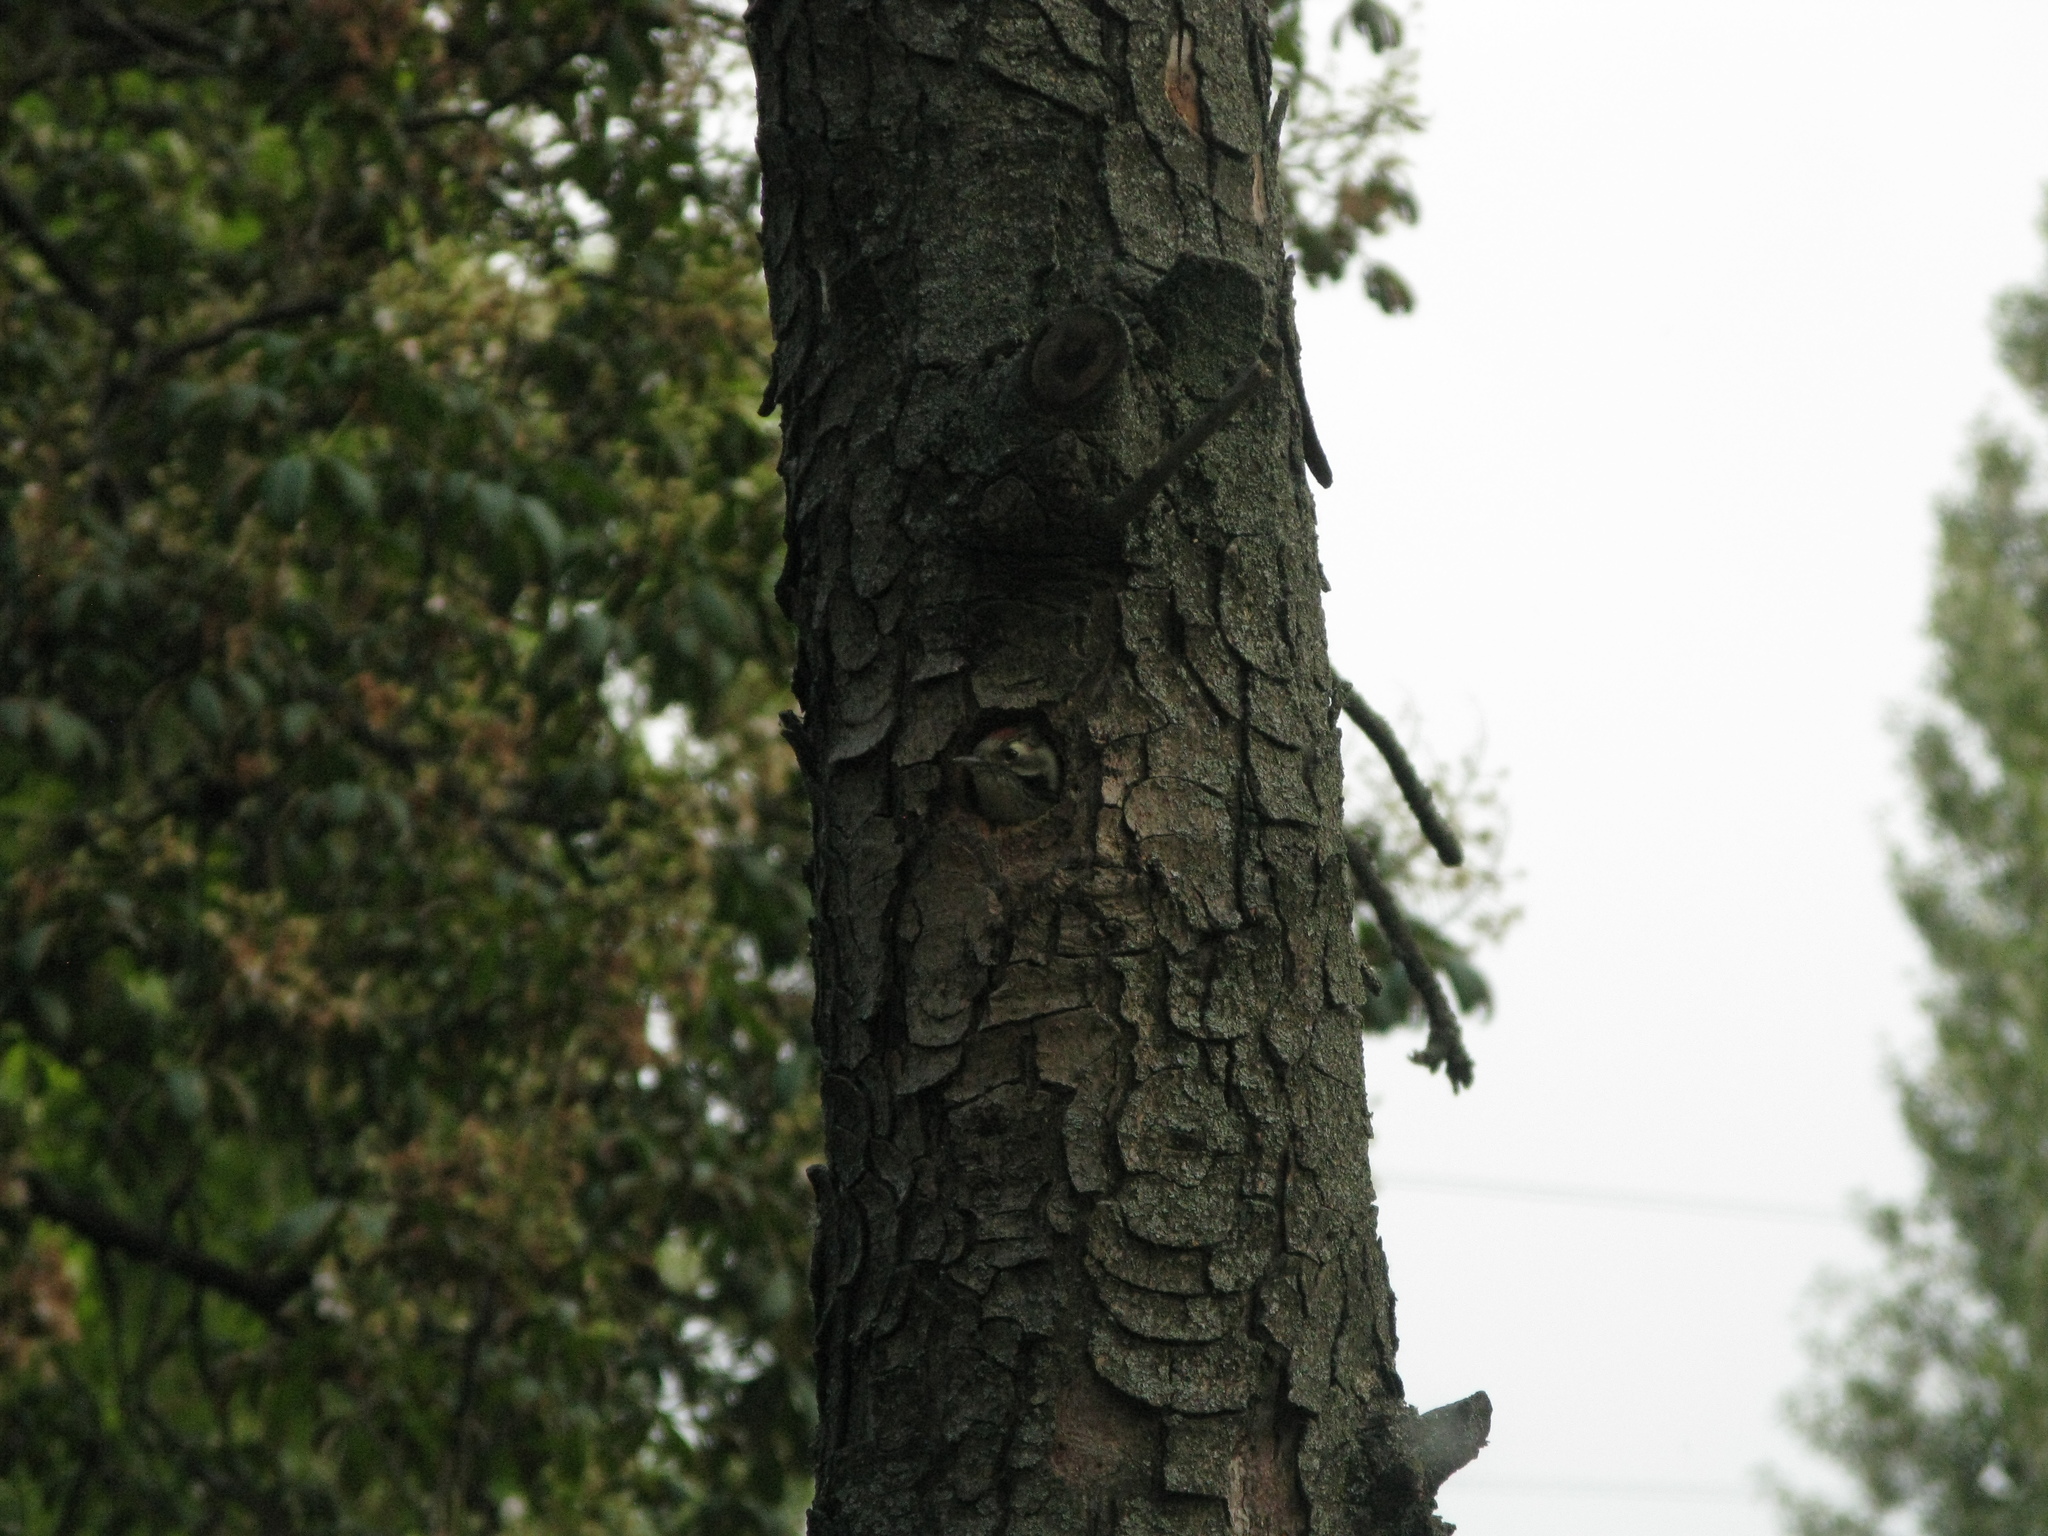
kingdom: Animalia
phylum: Chordata
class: Aves
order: Piciformes
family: Picidae
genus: Dryobates
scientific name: Dryobates minor
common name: Lesser spotted woodpecker
